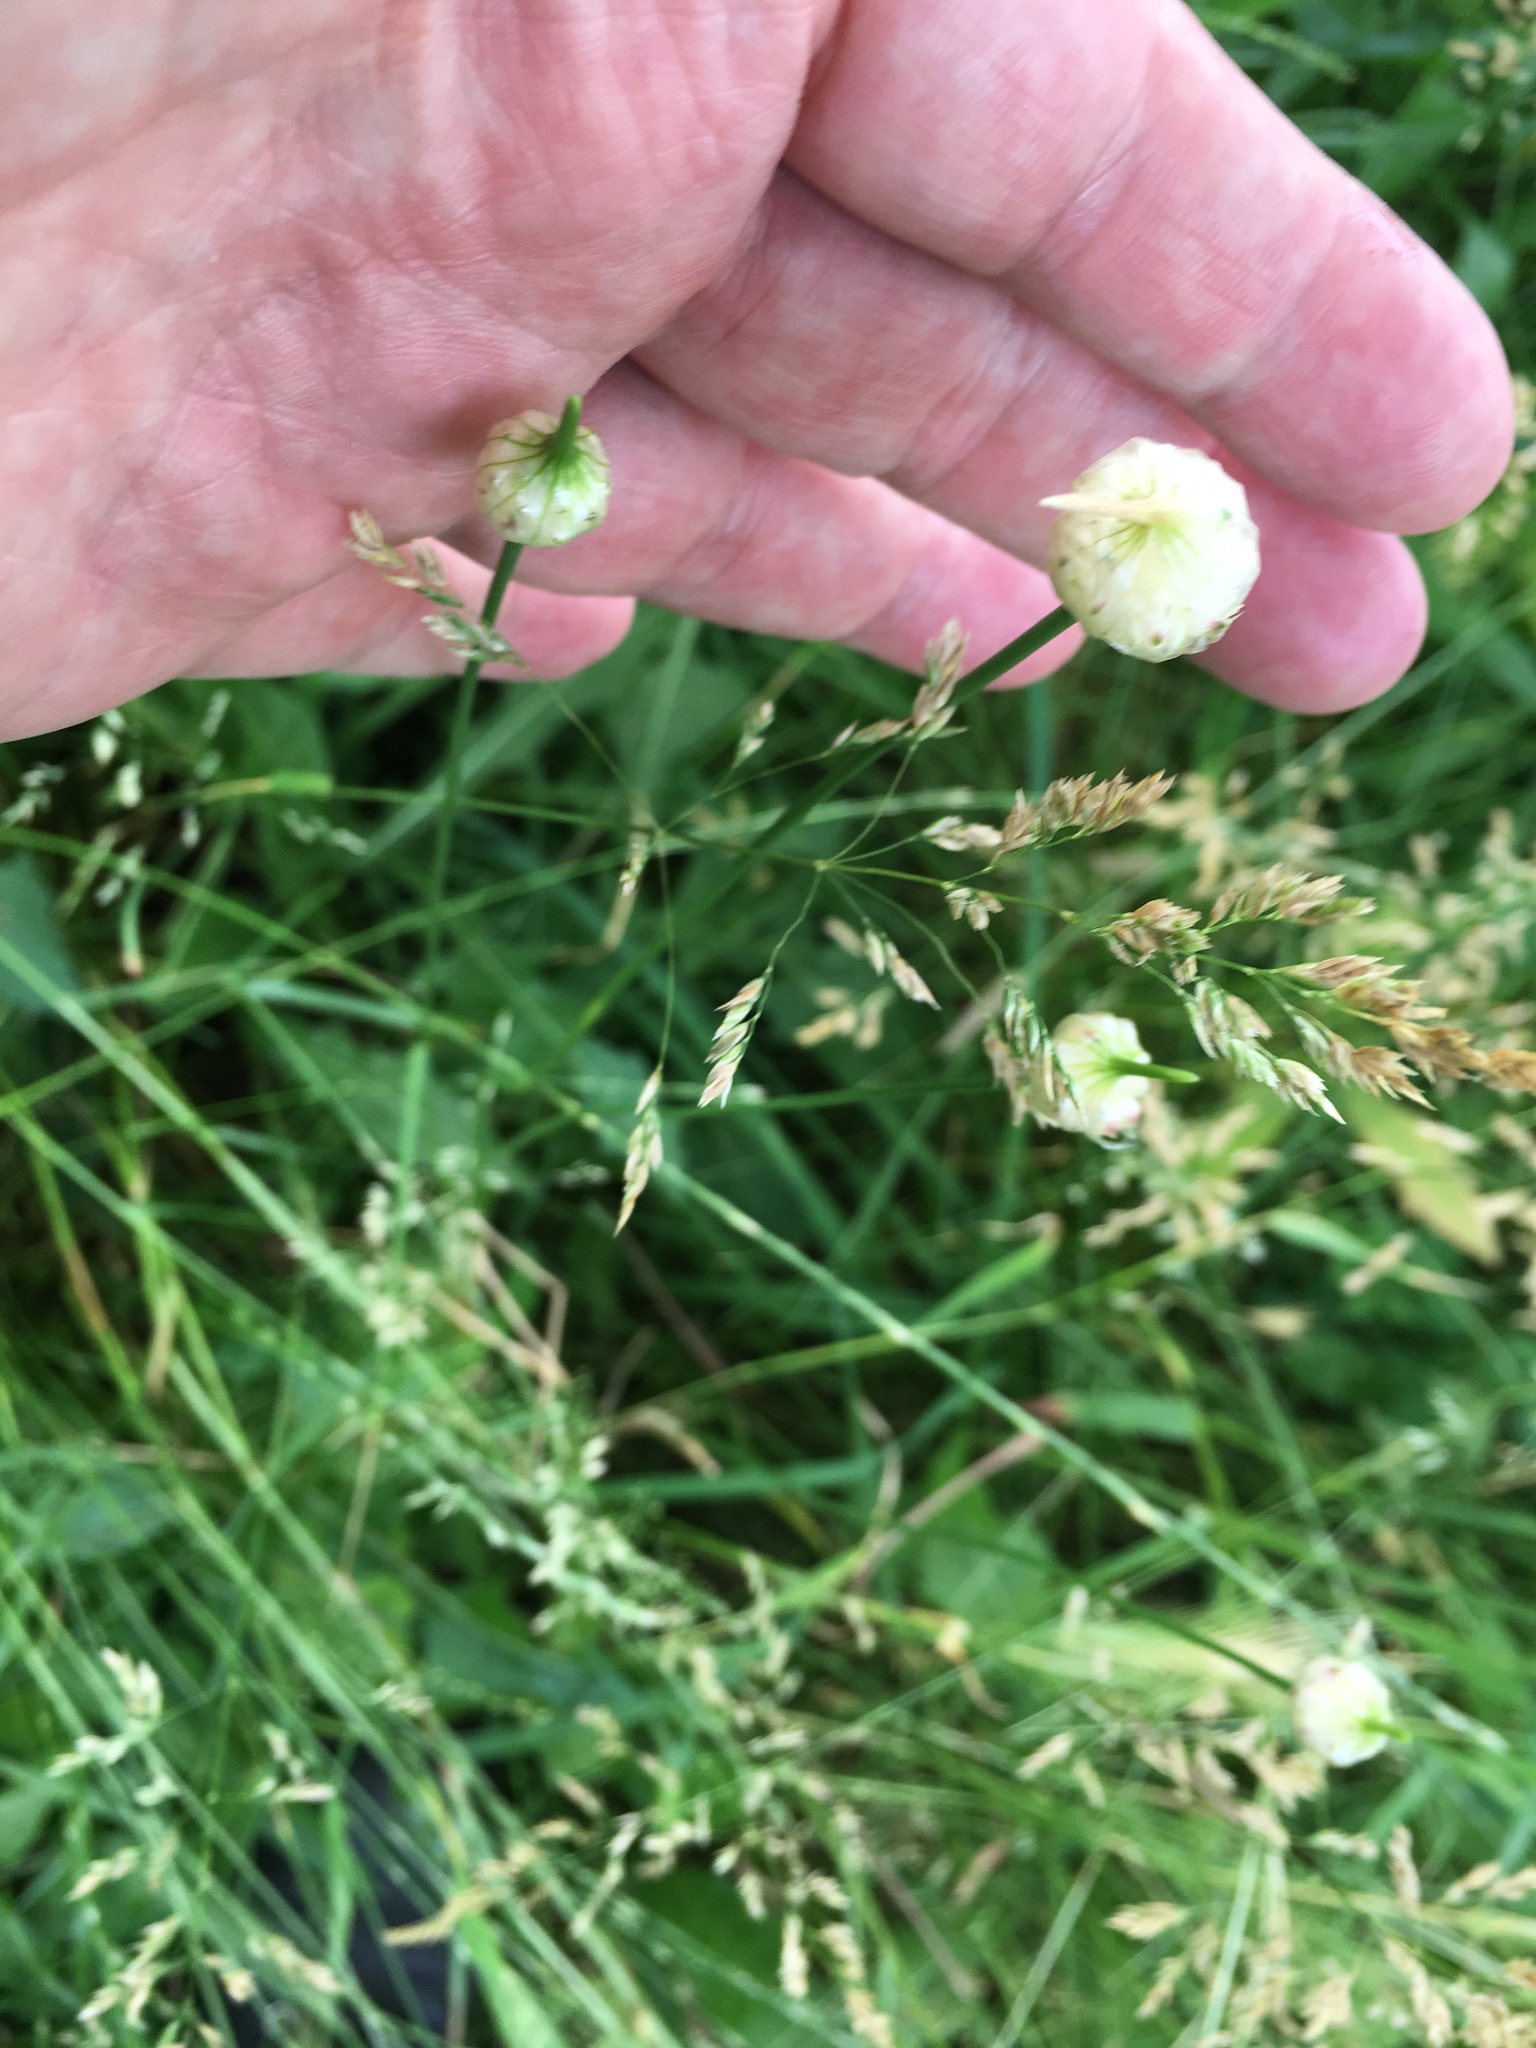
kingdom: Plantae
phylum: Tracheophyta
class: Liliopsida
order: Asparagales
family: Amaryllidaceae
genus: Allium
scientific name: Allium vineale
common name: Crow garlic
